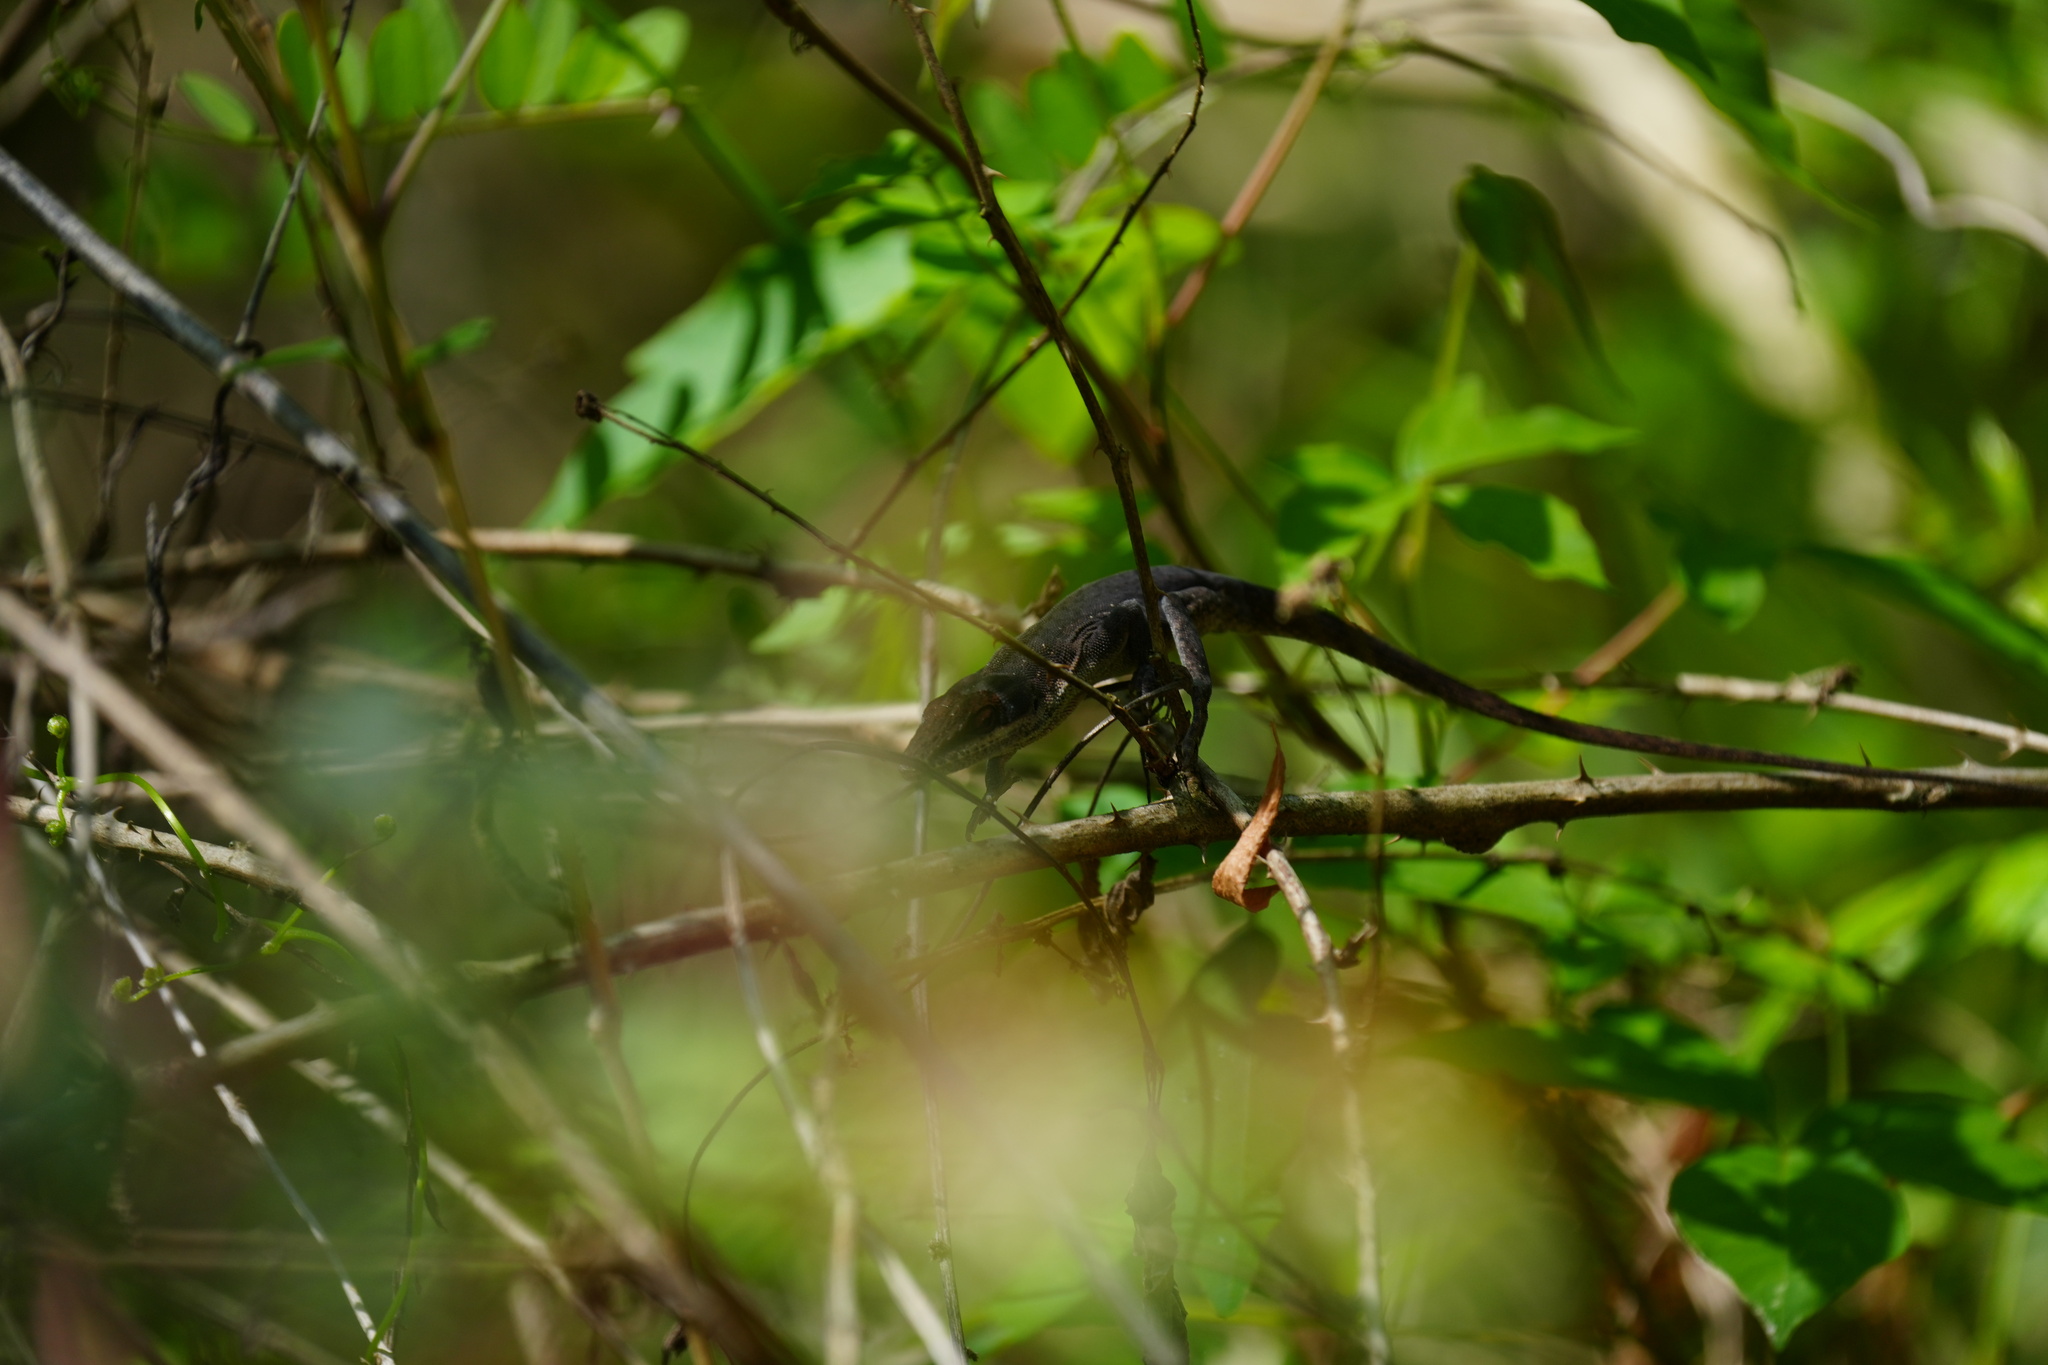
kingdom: Animalia
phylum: Chordata
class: Squamata
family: Dactyloidae
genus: Anolis
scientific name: Anolis carolinensis
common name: Green anole
